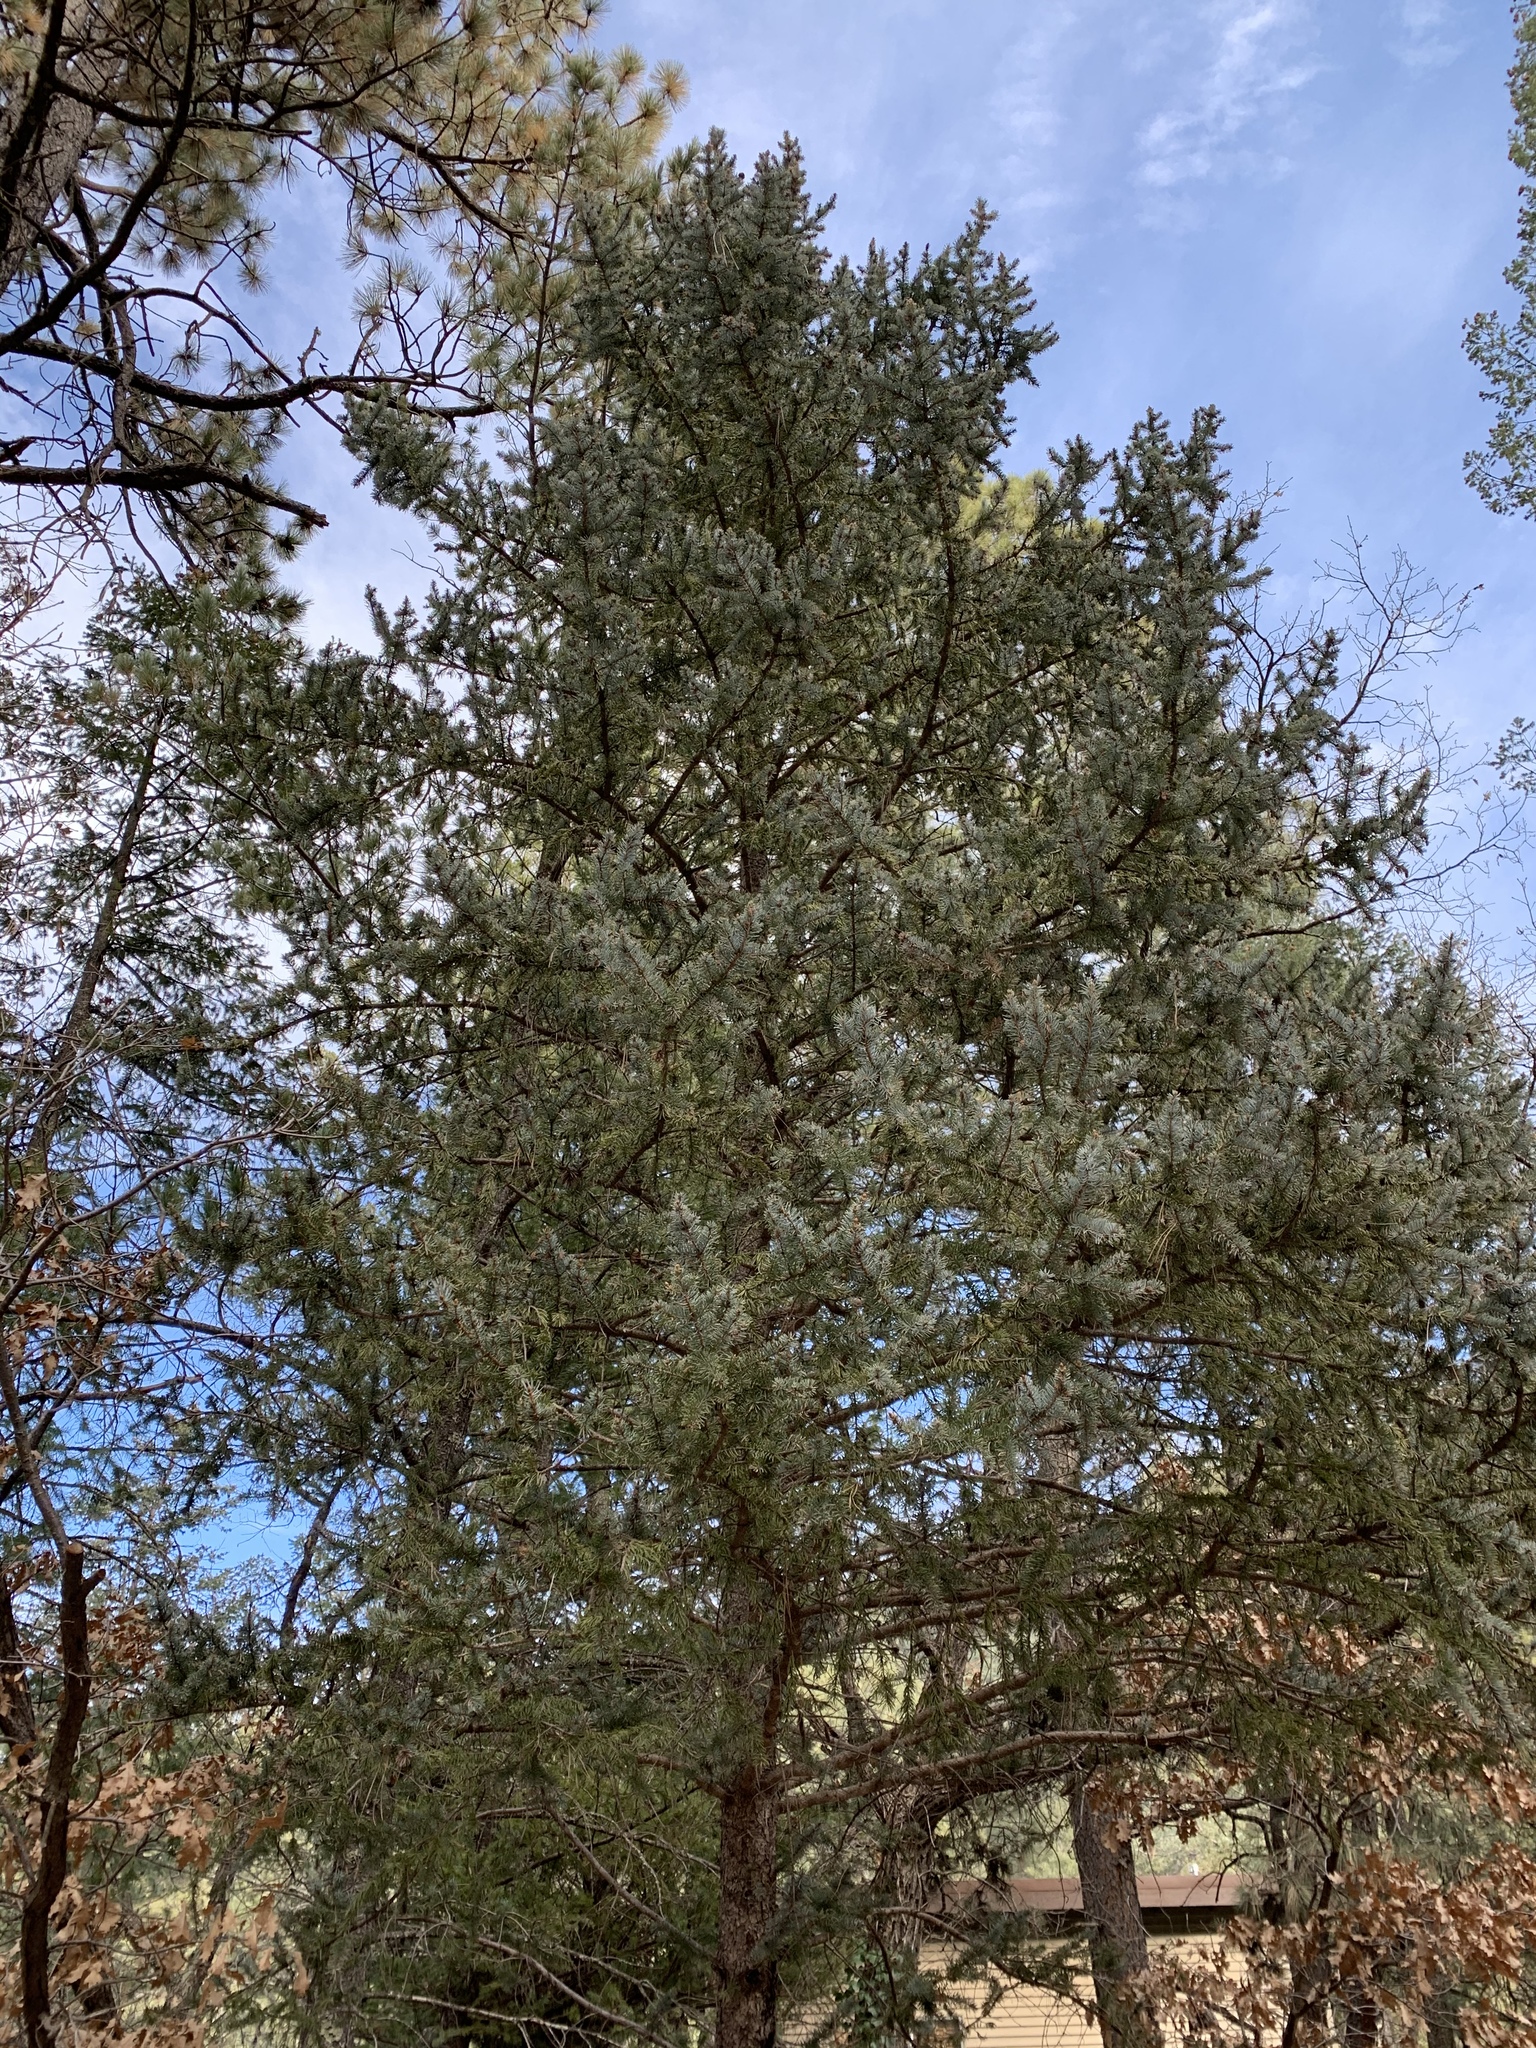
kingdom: Plantae
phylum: Tracheophyta
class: Pinopsida
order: Pinales
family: Pinaceae
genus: Picea
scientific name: Picea engelmannii
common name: Engelmann spruce
